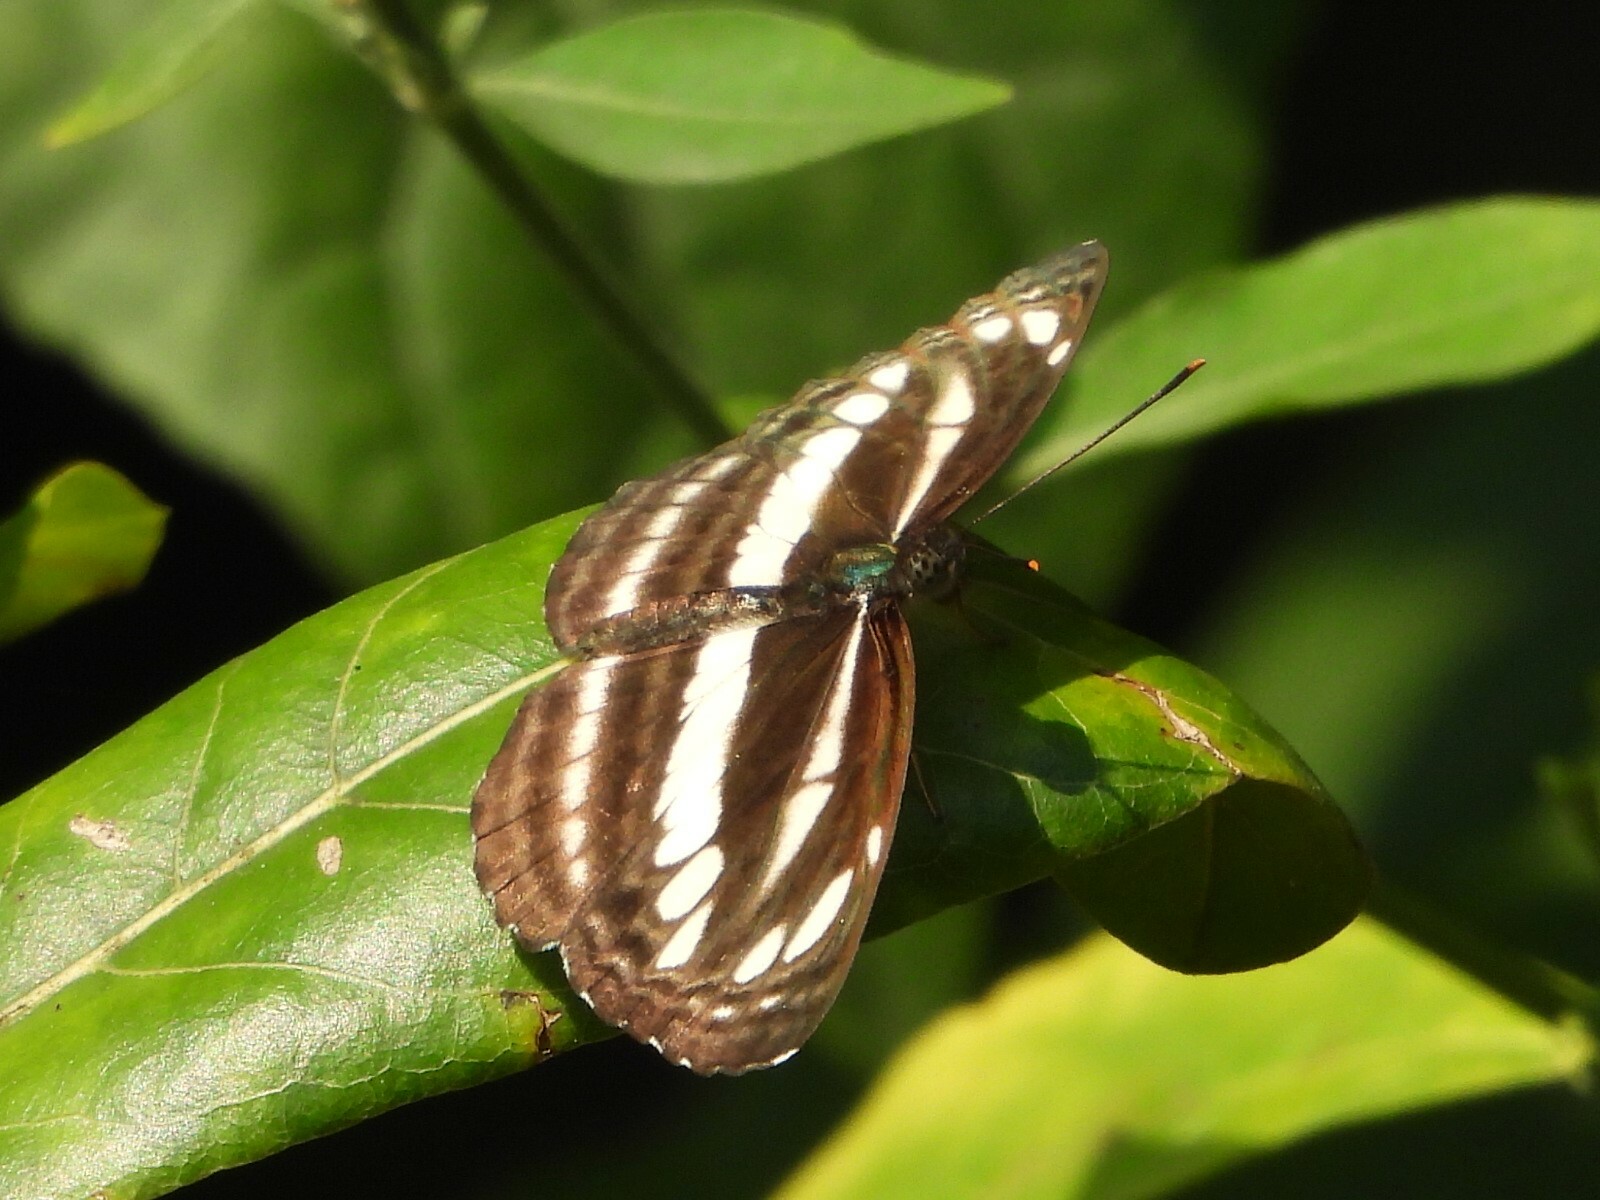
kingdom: Animalia
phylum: Arthropoda
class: Insecta
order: Lepidoptera
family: Nymphalidae
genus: Neptis
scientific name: Neptis clinia
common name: Southern sullied sailer
